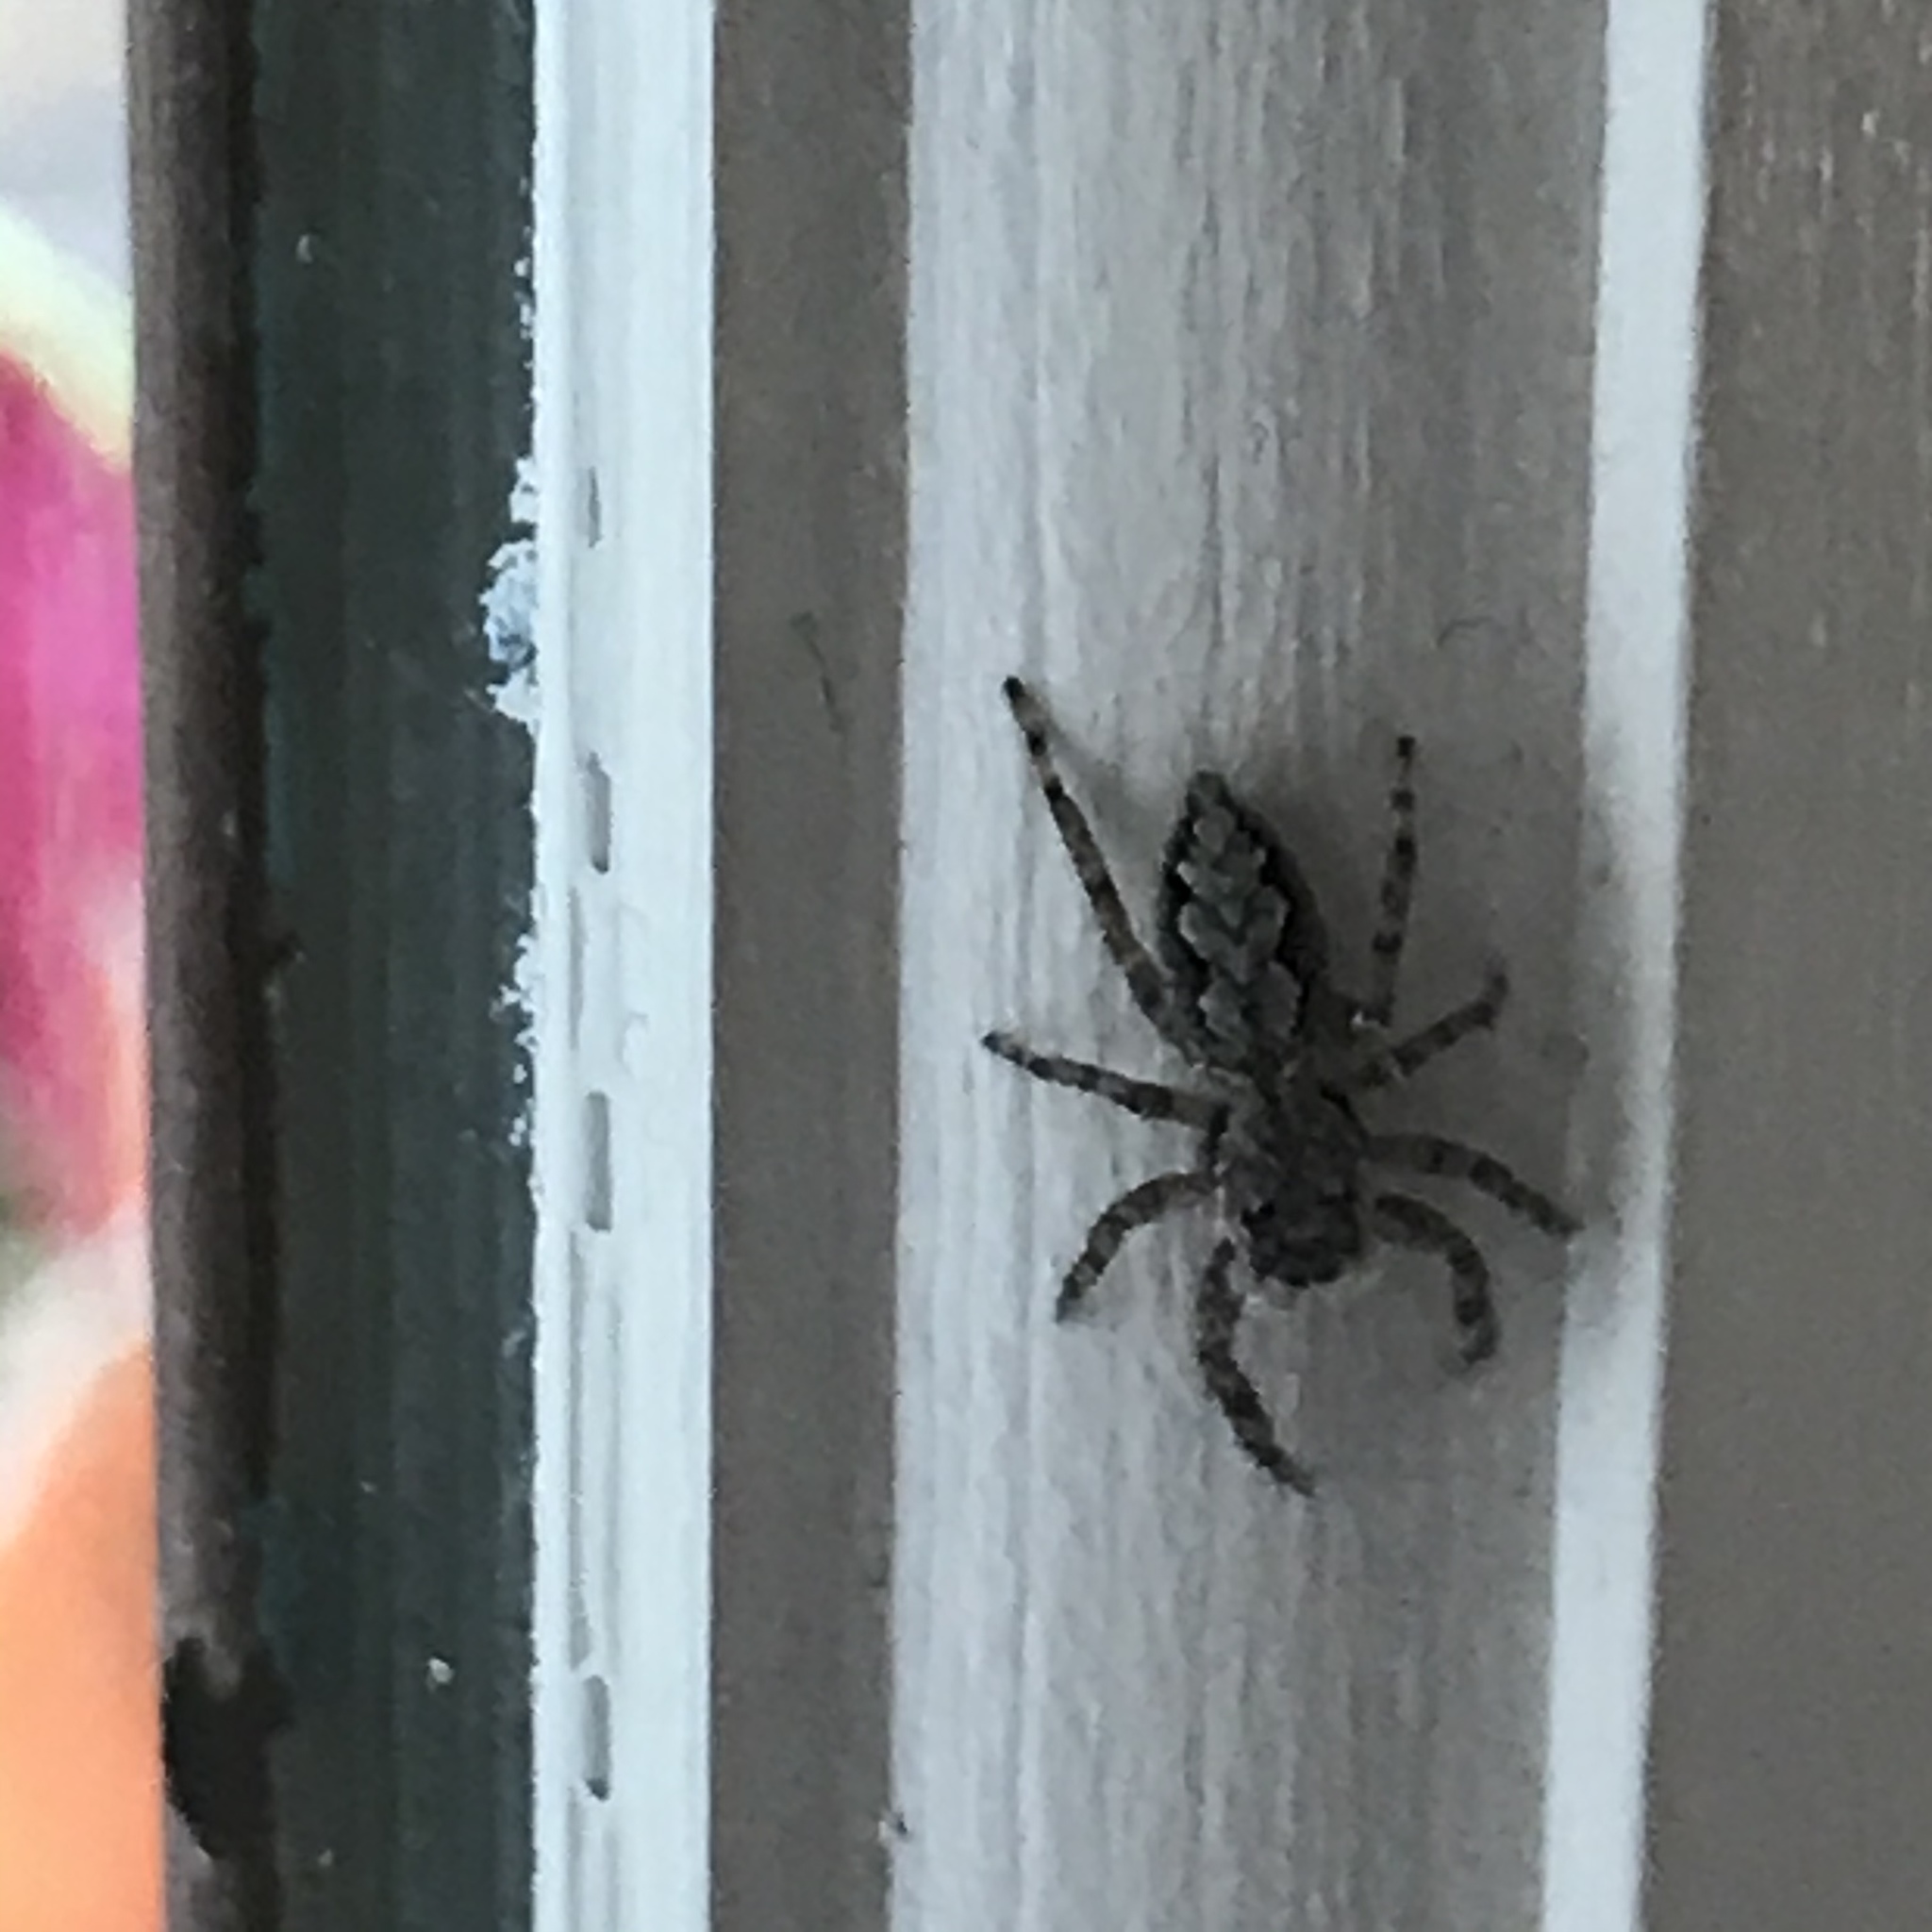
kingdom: Animalia
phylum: Arthropoda
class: Arachnida
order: Araneae
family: Salticidae
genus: Platycryptus
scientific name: Platycryptus undatus
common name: Tan jumping spider
